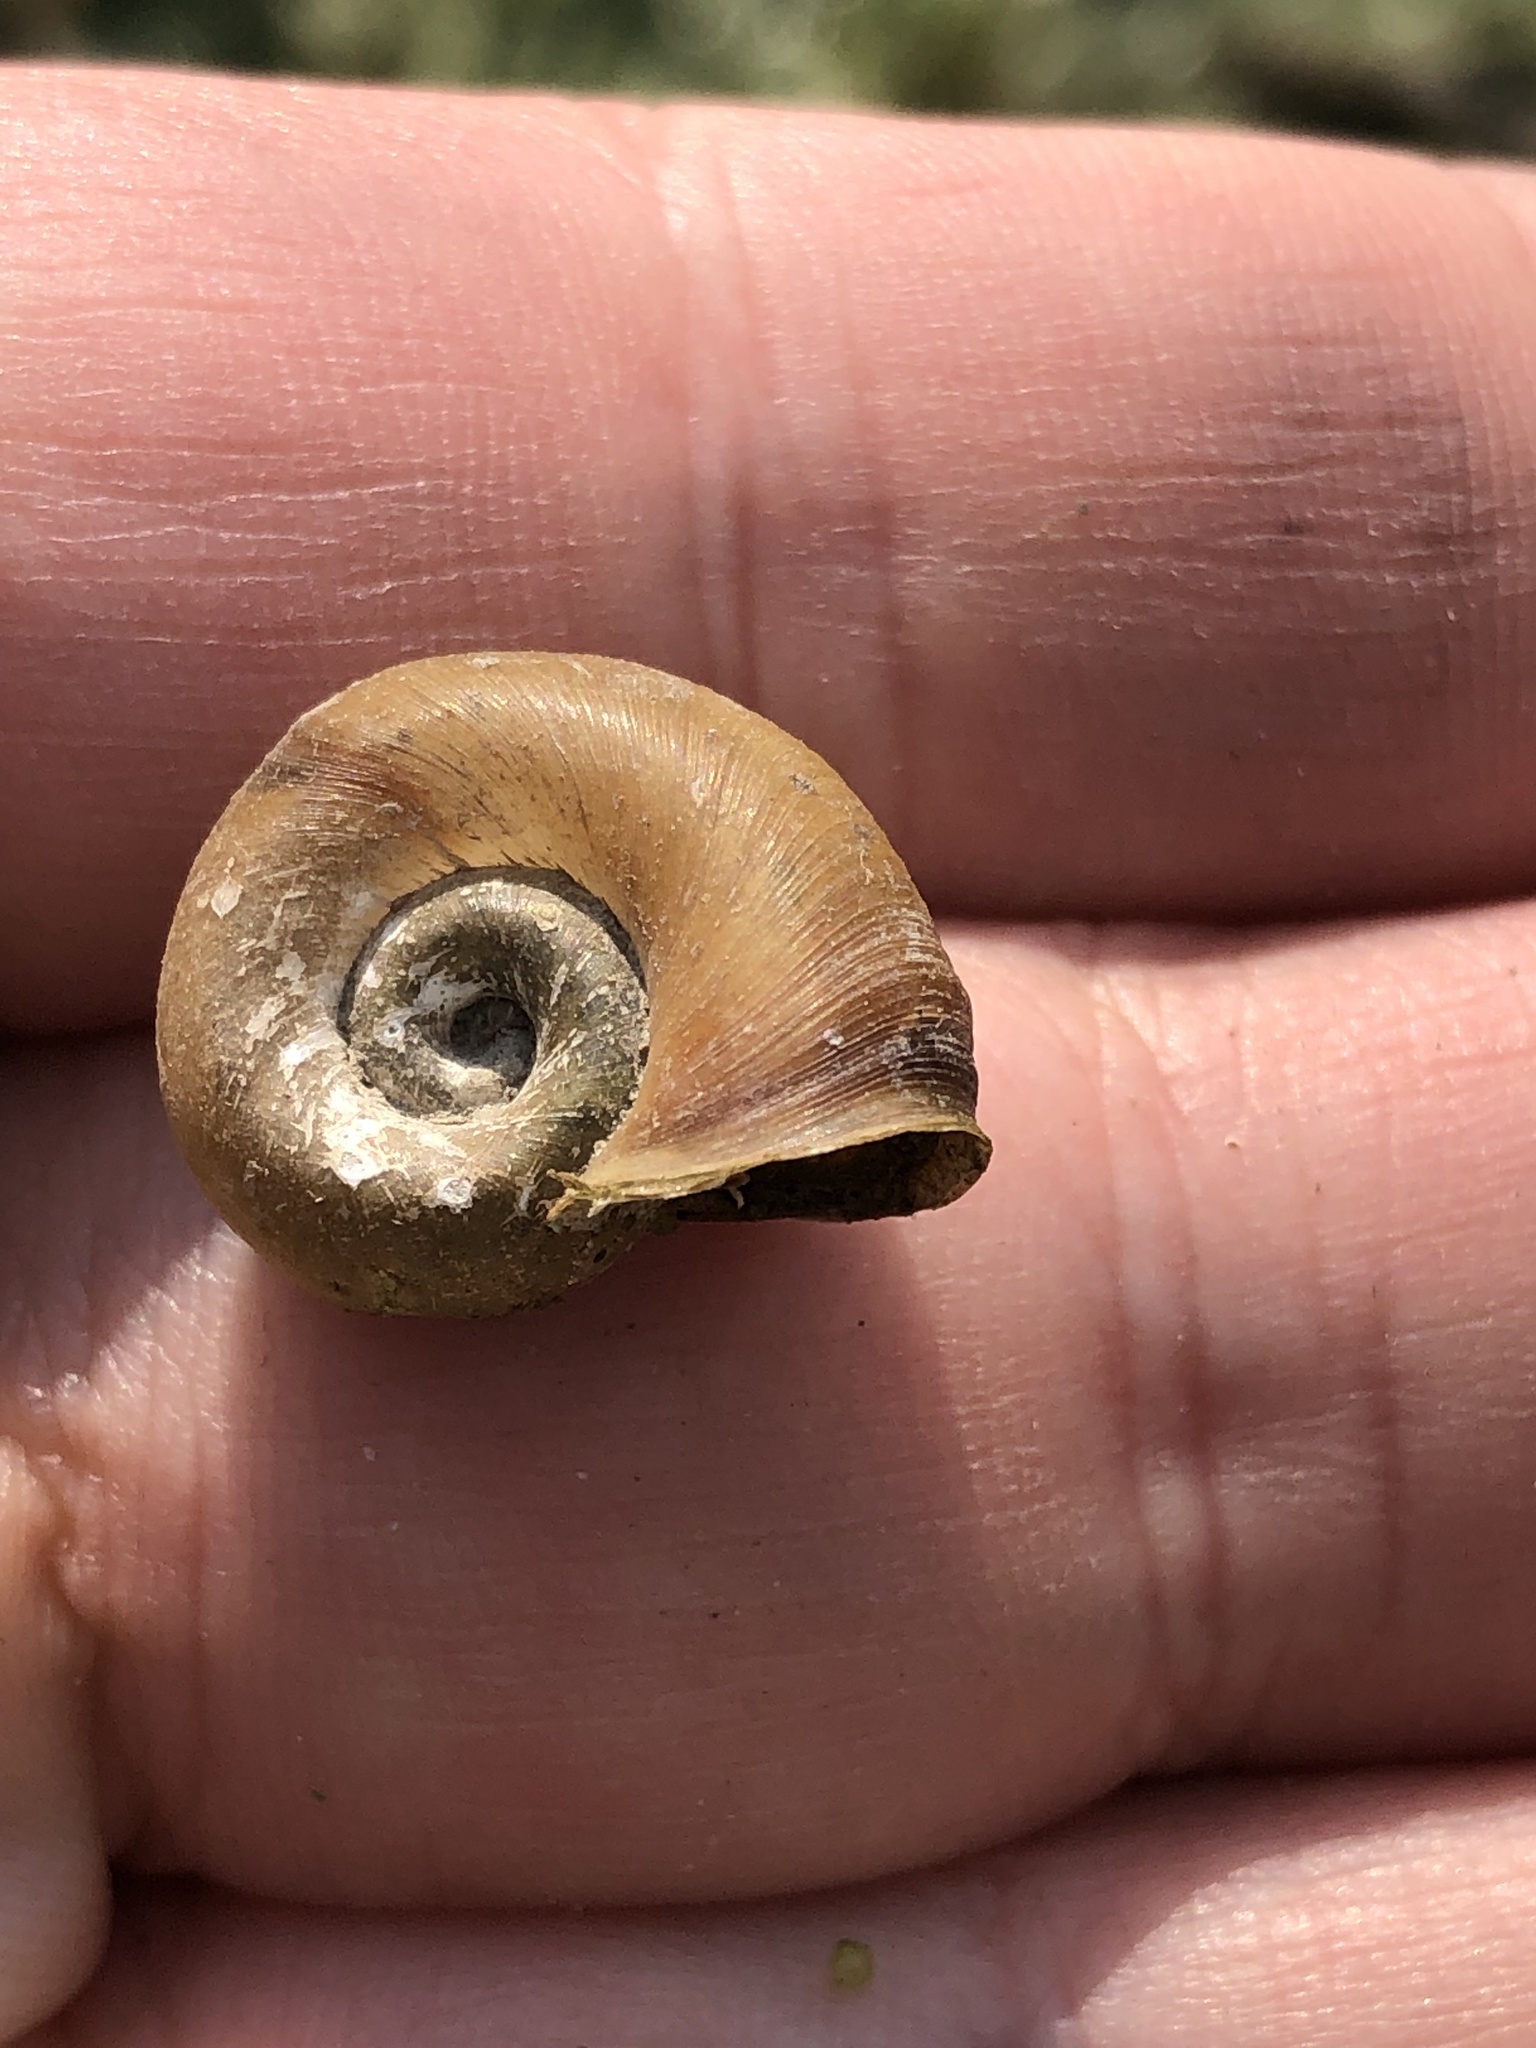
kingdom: Animalia
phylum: Mollusca
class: Gastropoda
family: Planorbidae
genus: Planorbella
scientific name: Planorbella trivolvis
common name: Marsh rams-horn
